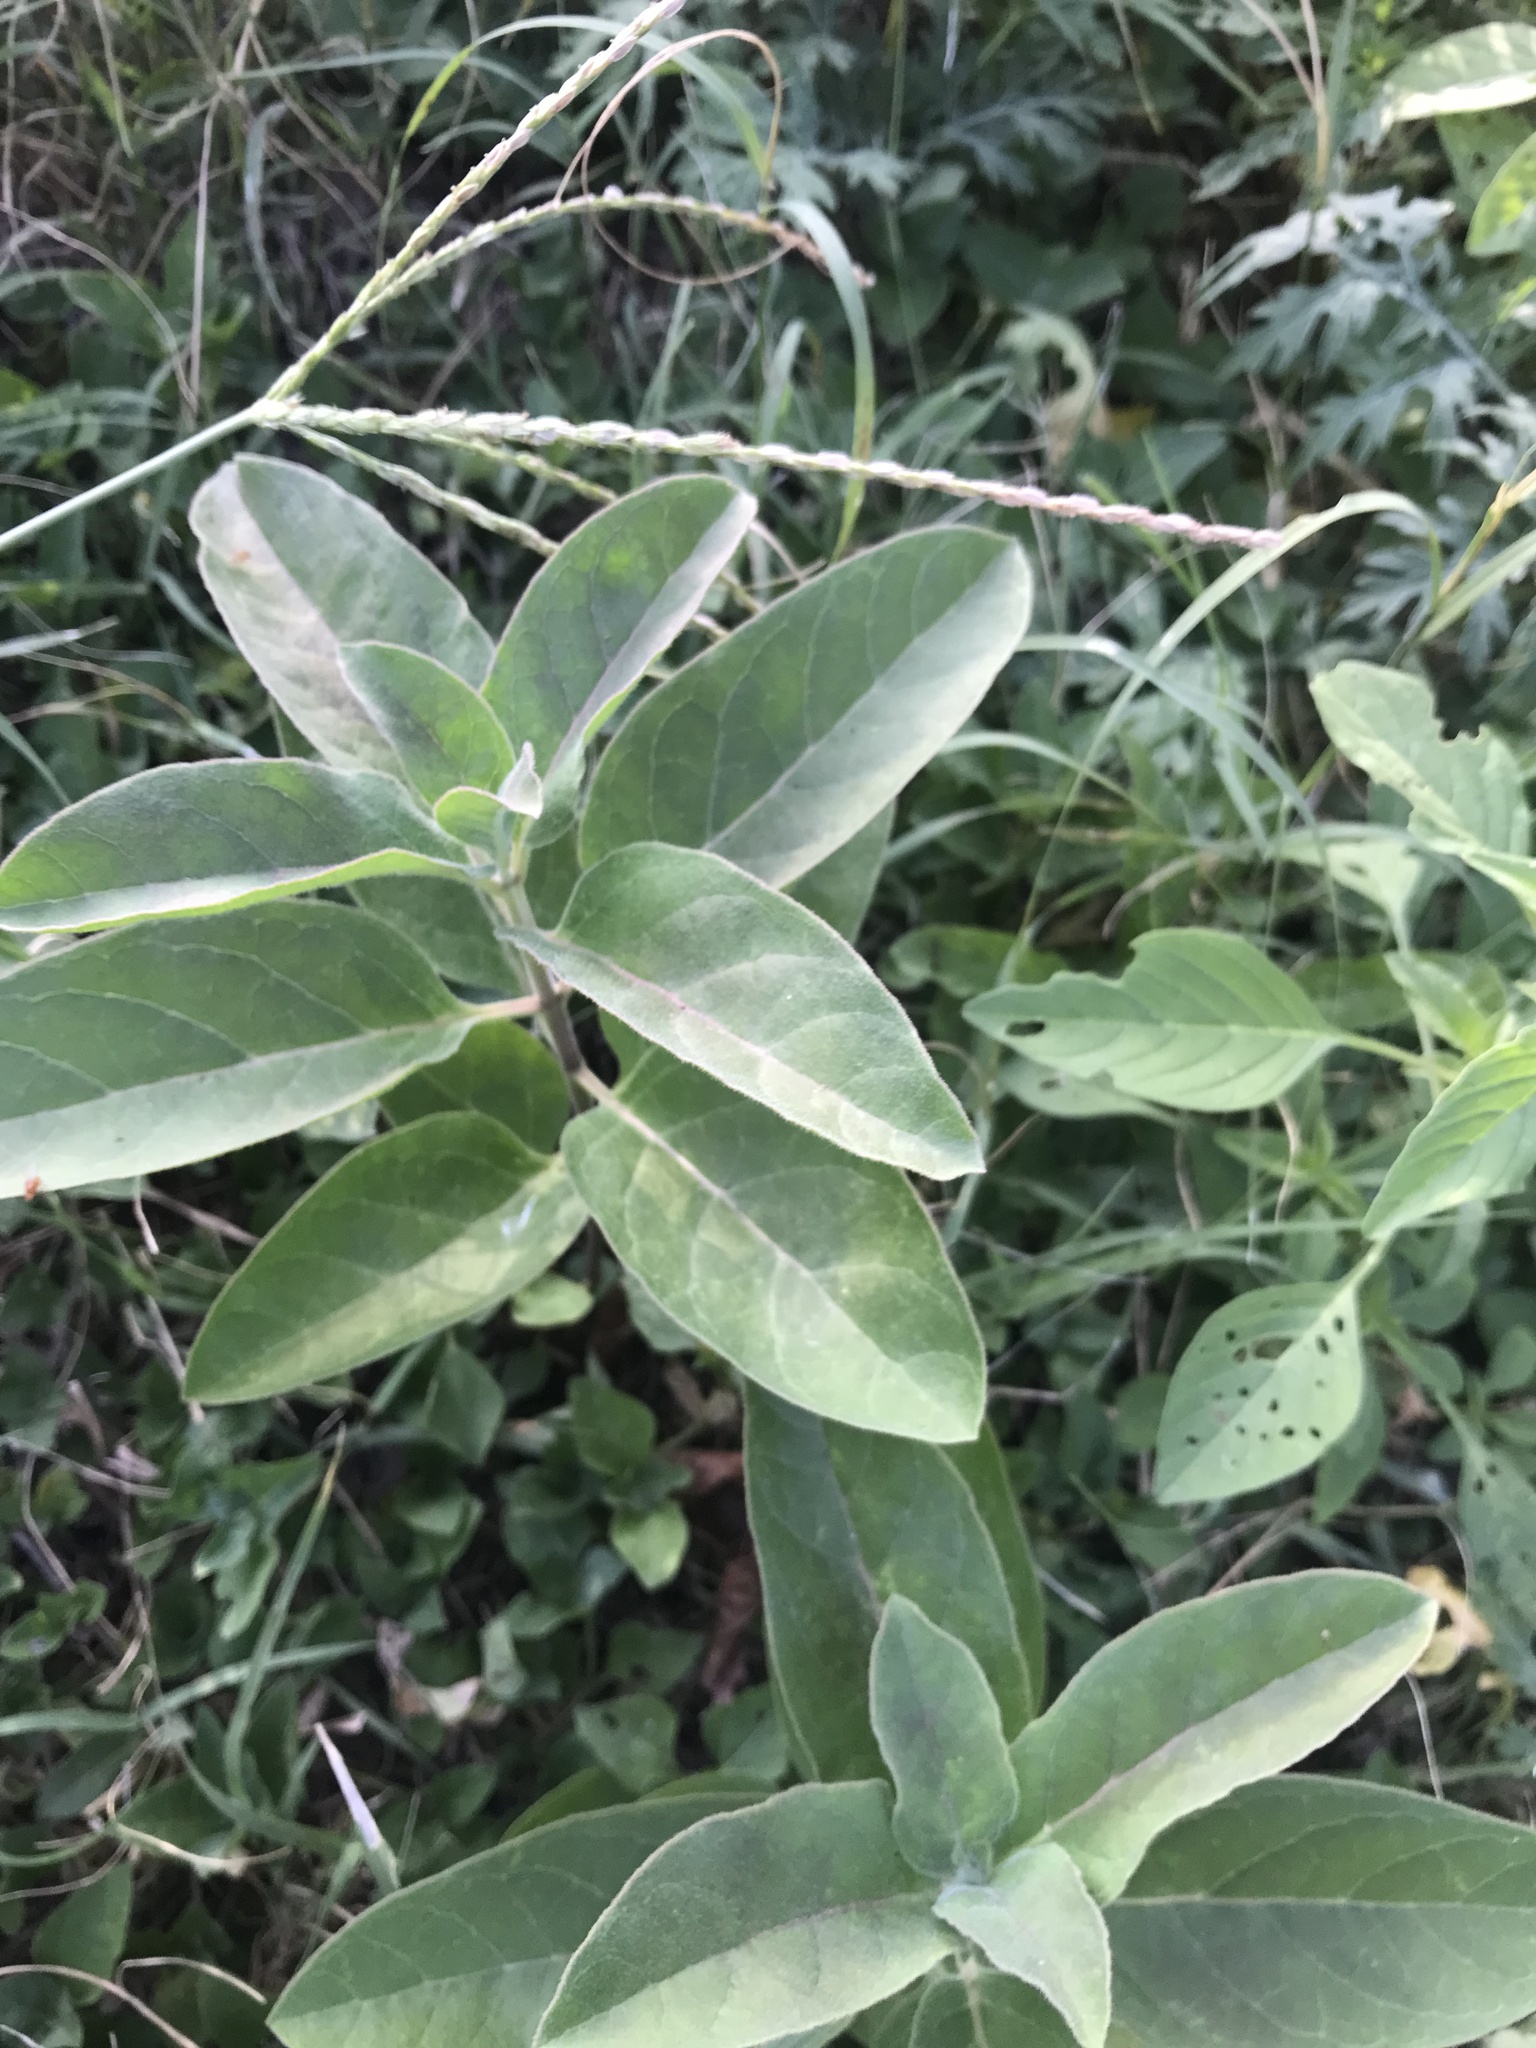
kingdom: Plantae
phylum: Tracheophyta
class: Magnoliopsida
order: Gentianales
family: Apocynaceae
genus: Asclepias
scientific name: Asclepias oenotheroides
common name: Zizotes milkweed
